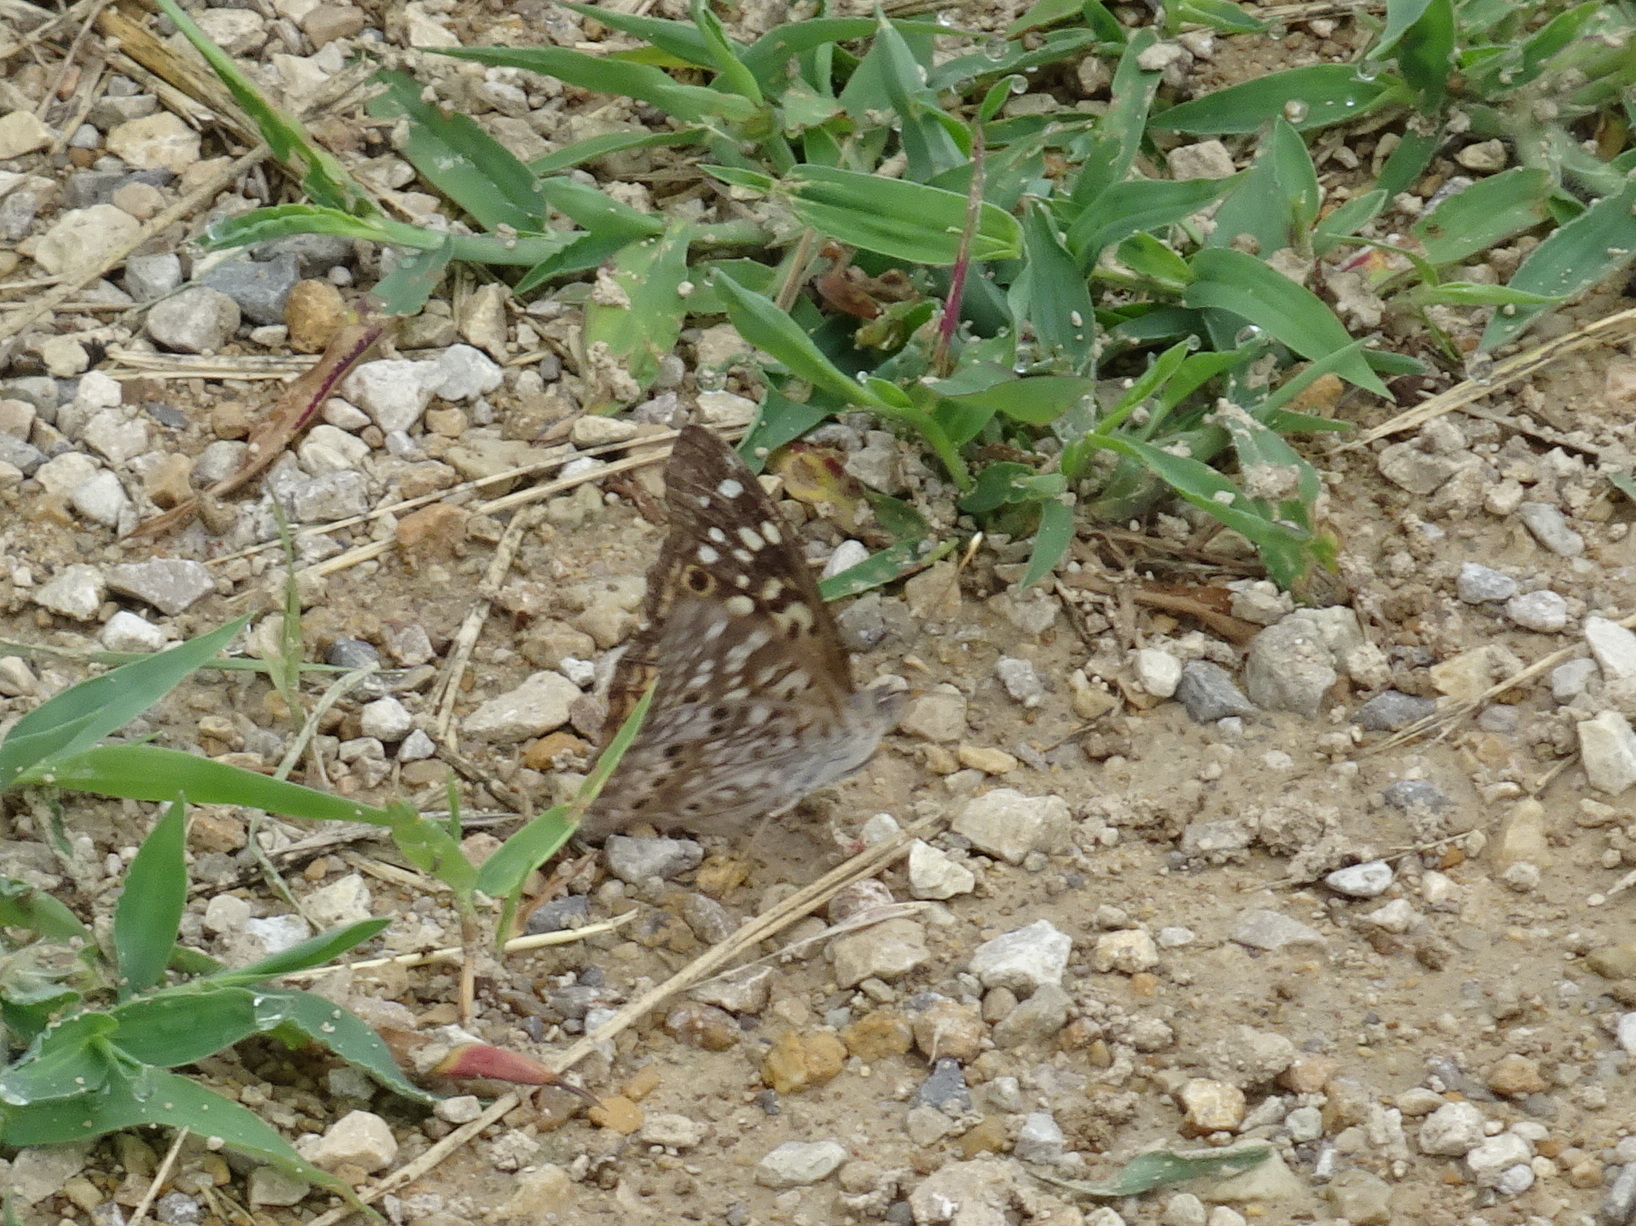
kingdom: Animalia
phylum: Arthropoda
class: Insecta
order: Lepidoptera
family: Nymphalidae
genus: Asterocampa
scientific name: Asterocampa celtis
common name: Hackberry emperor
